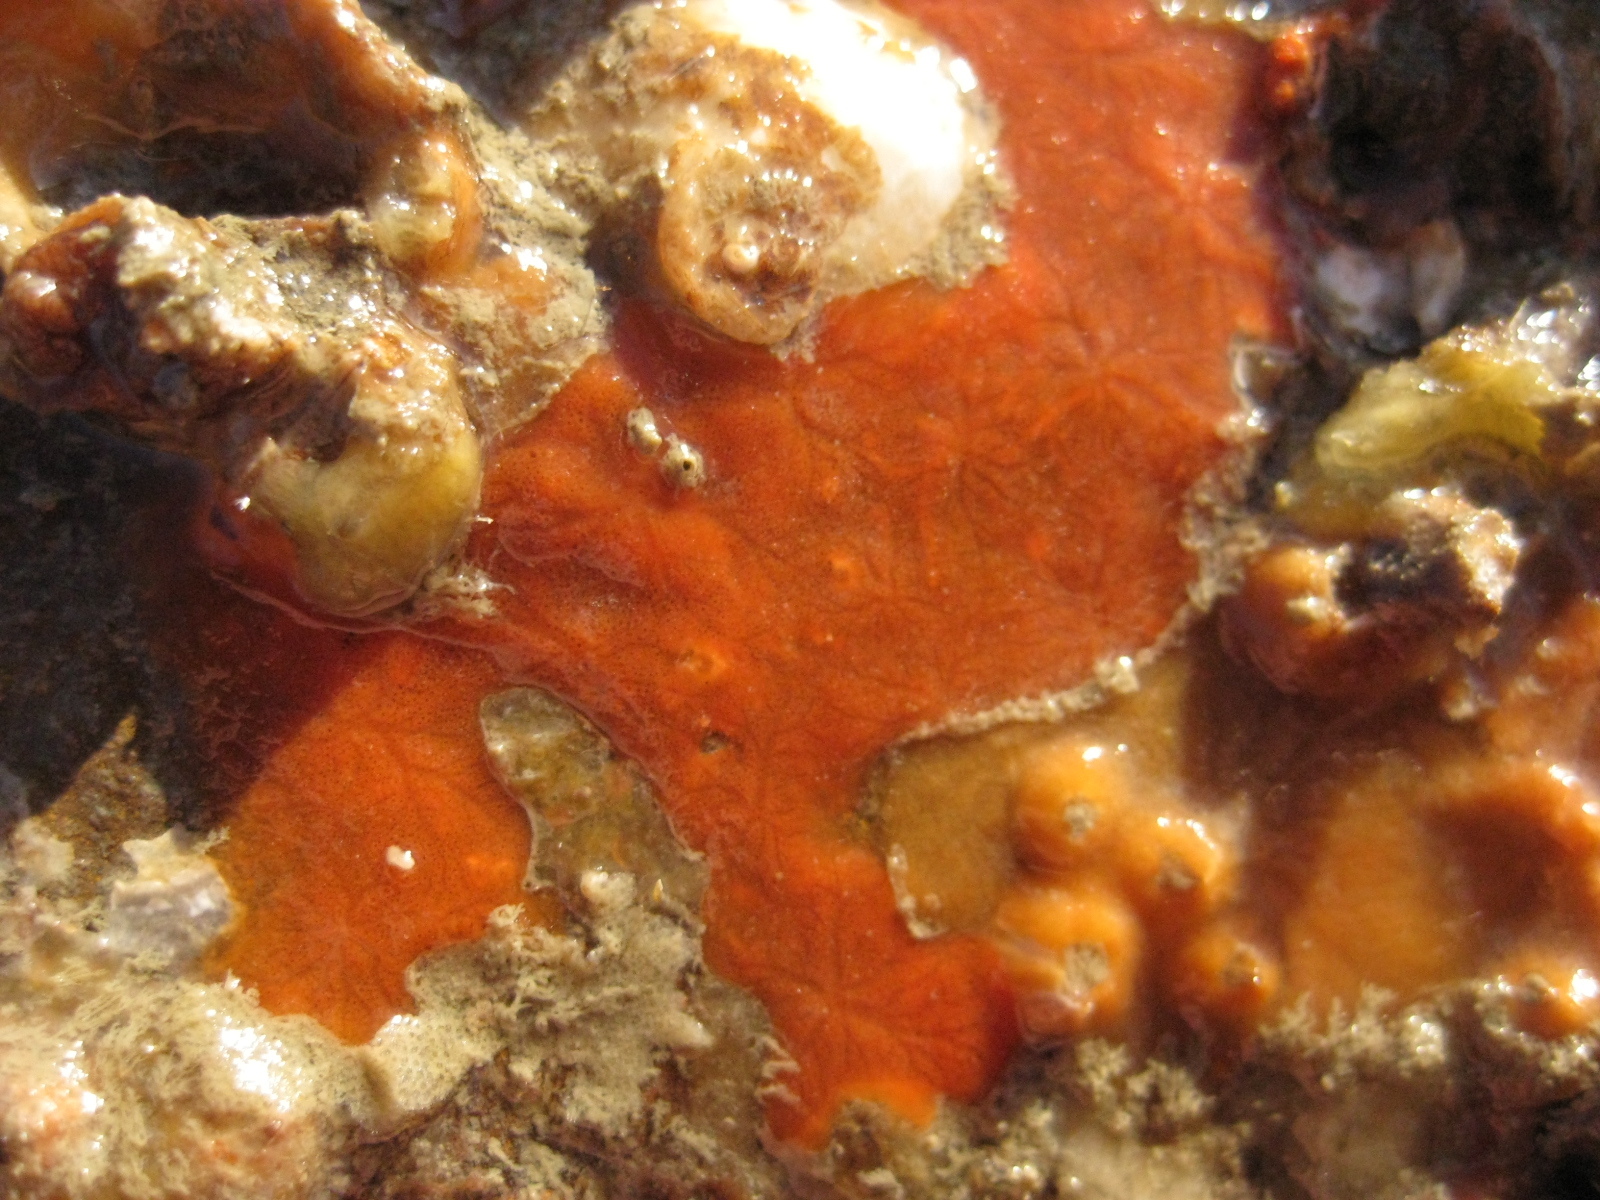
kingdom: Animalia
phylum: Porifera
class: Demospongiae
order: Tethyida
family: Timeidae
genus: Timea
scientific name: Timea aurantiaca
